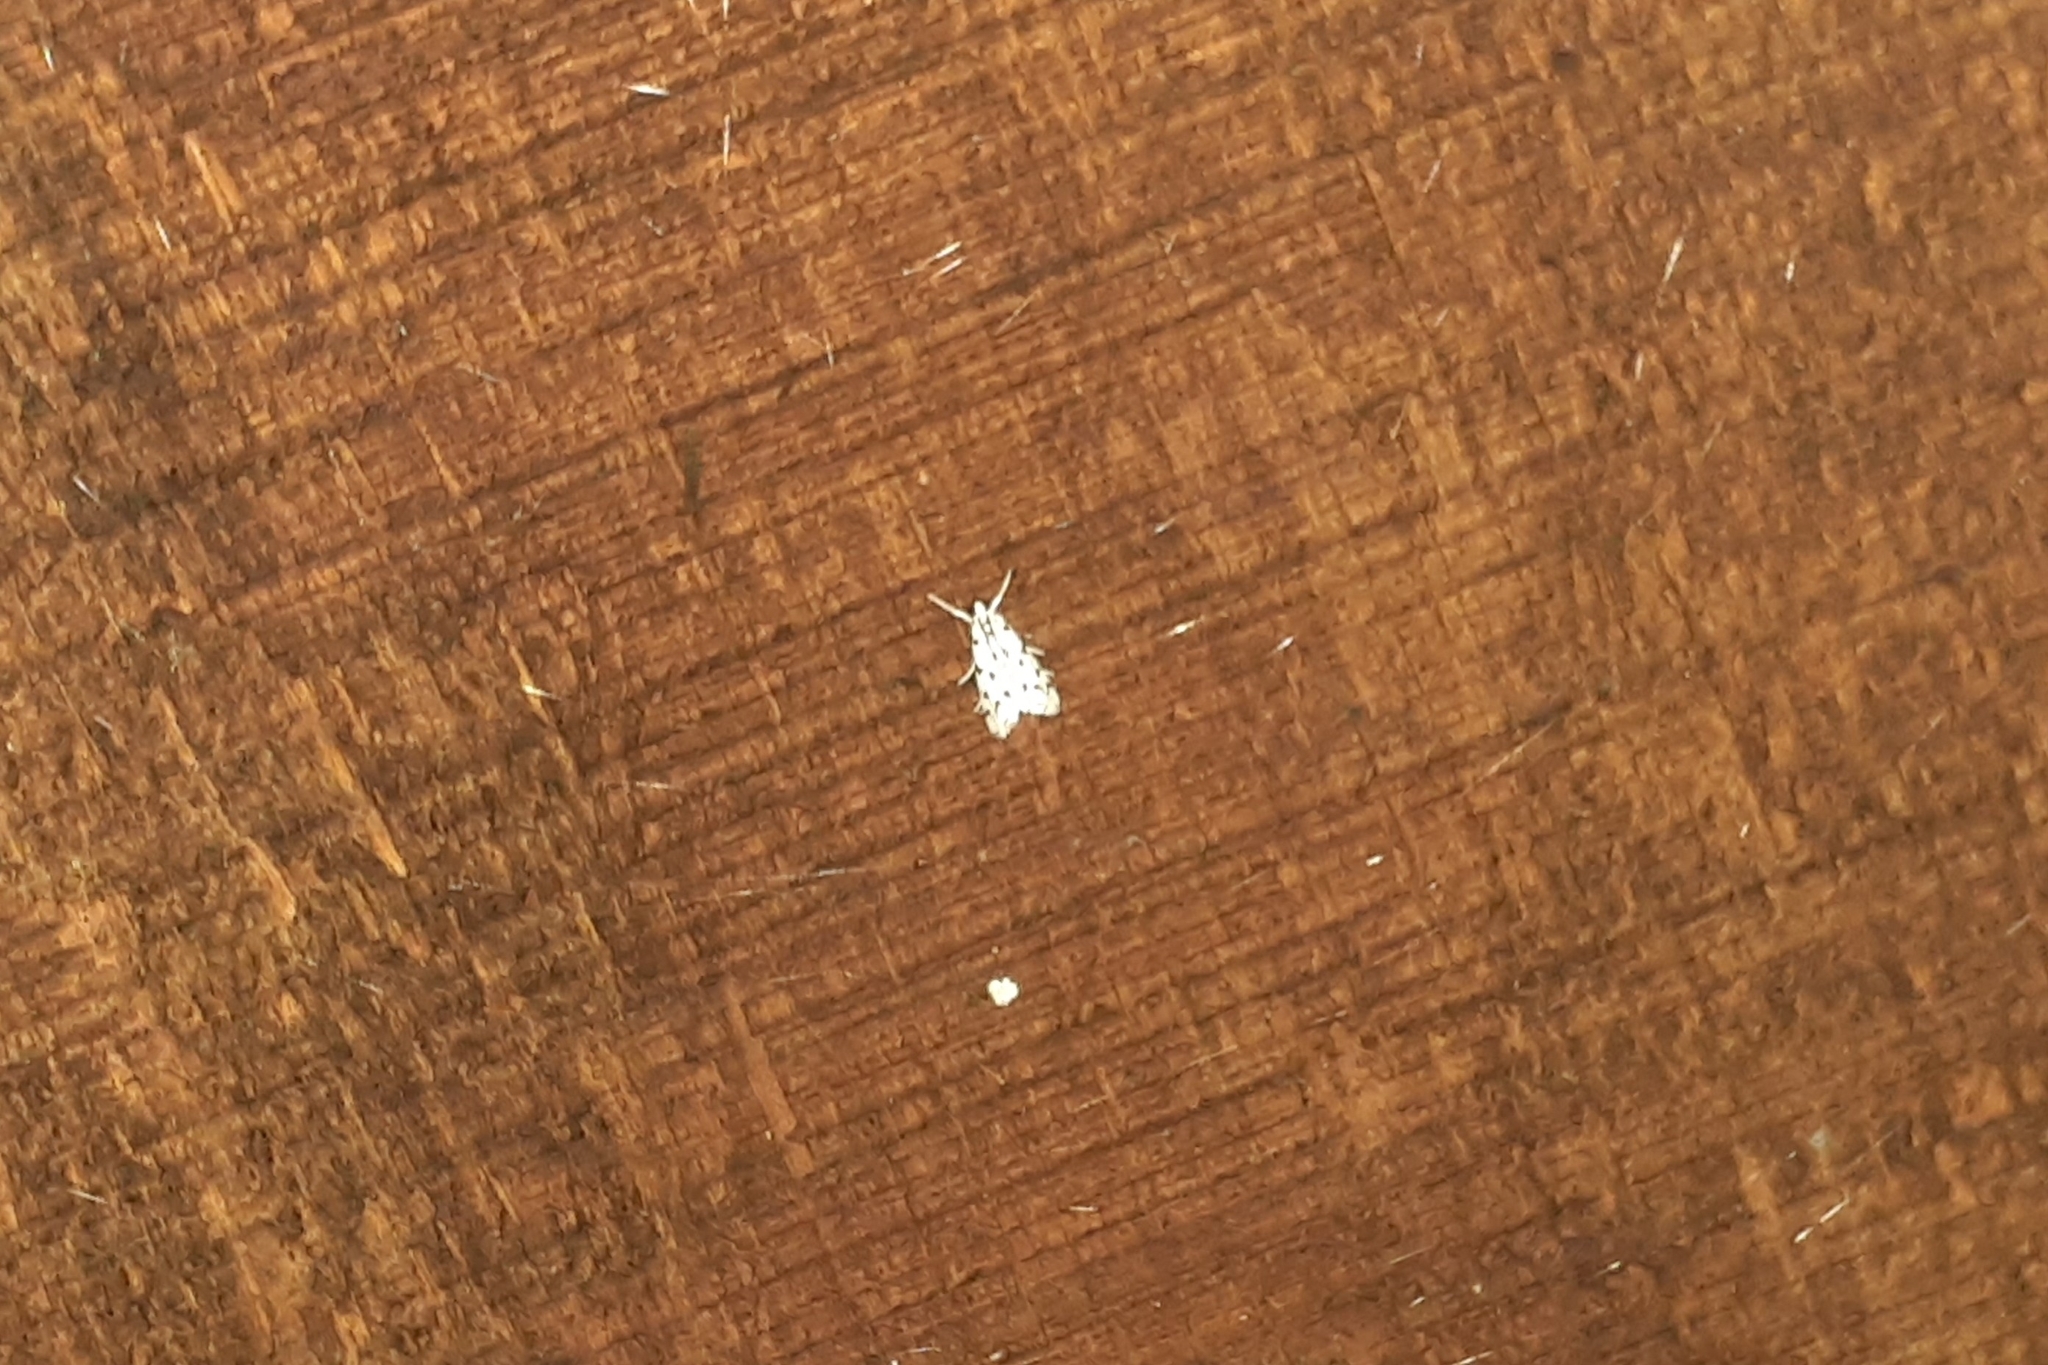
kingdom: Animalia
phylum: Arthropoda
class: Insecta
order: Lepidoptera
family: Crambidae
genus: Eustixia
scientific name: Eustixia pupula
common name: American cabbage pearl
